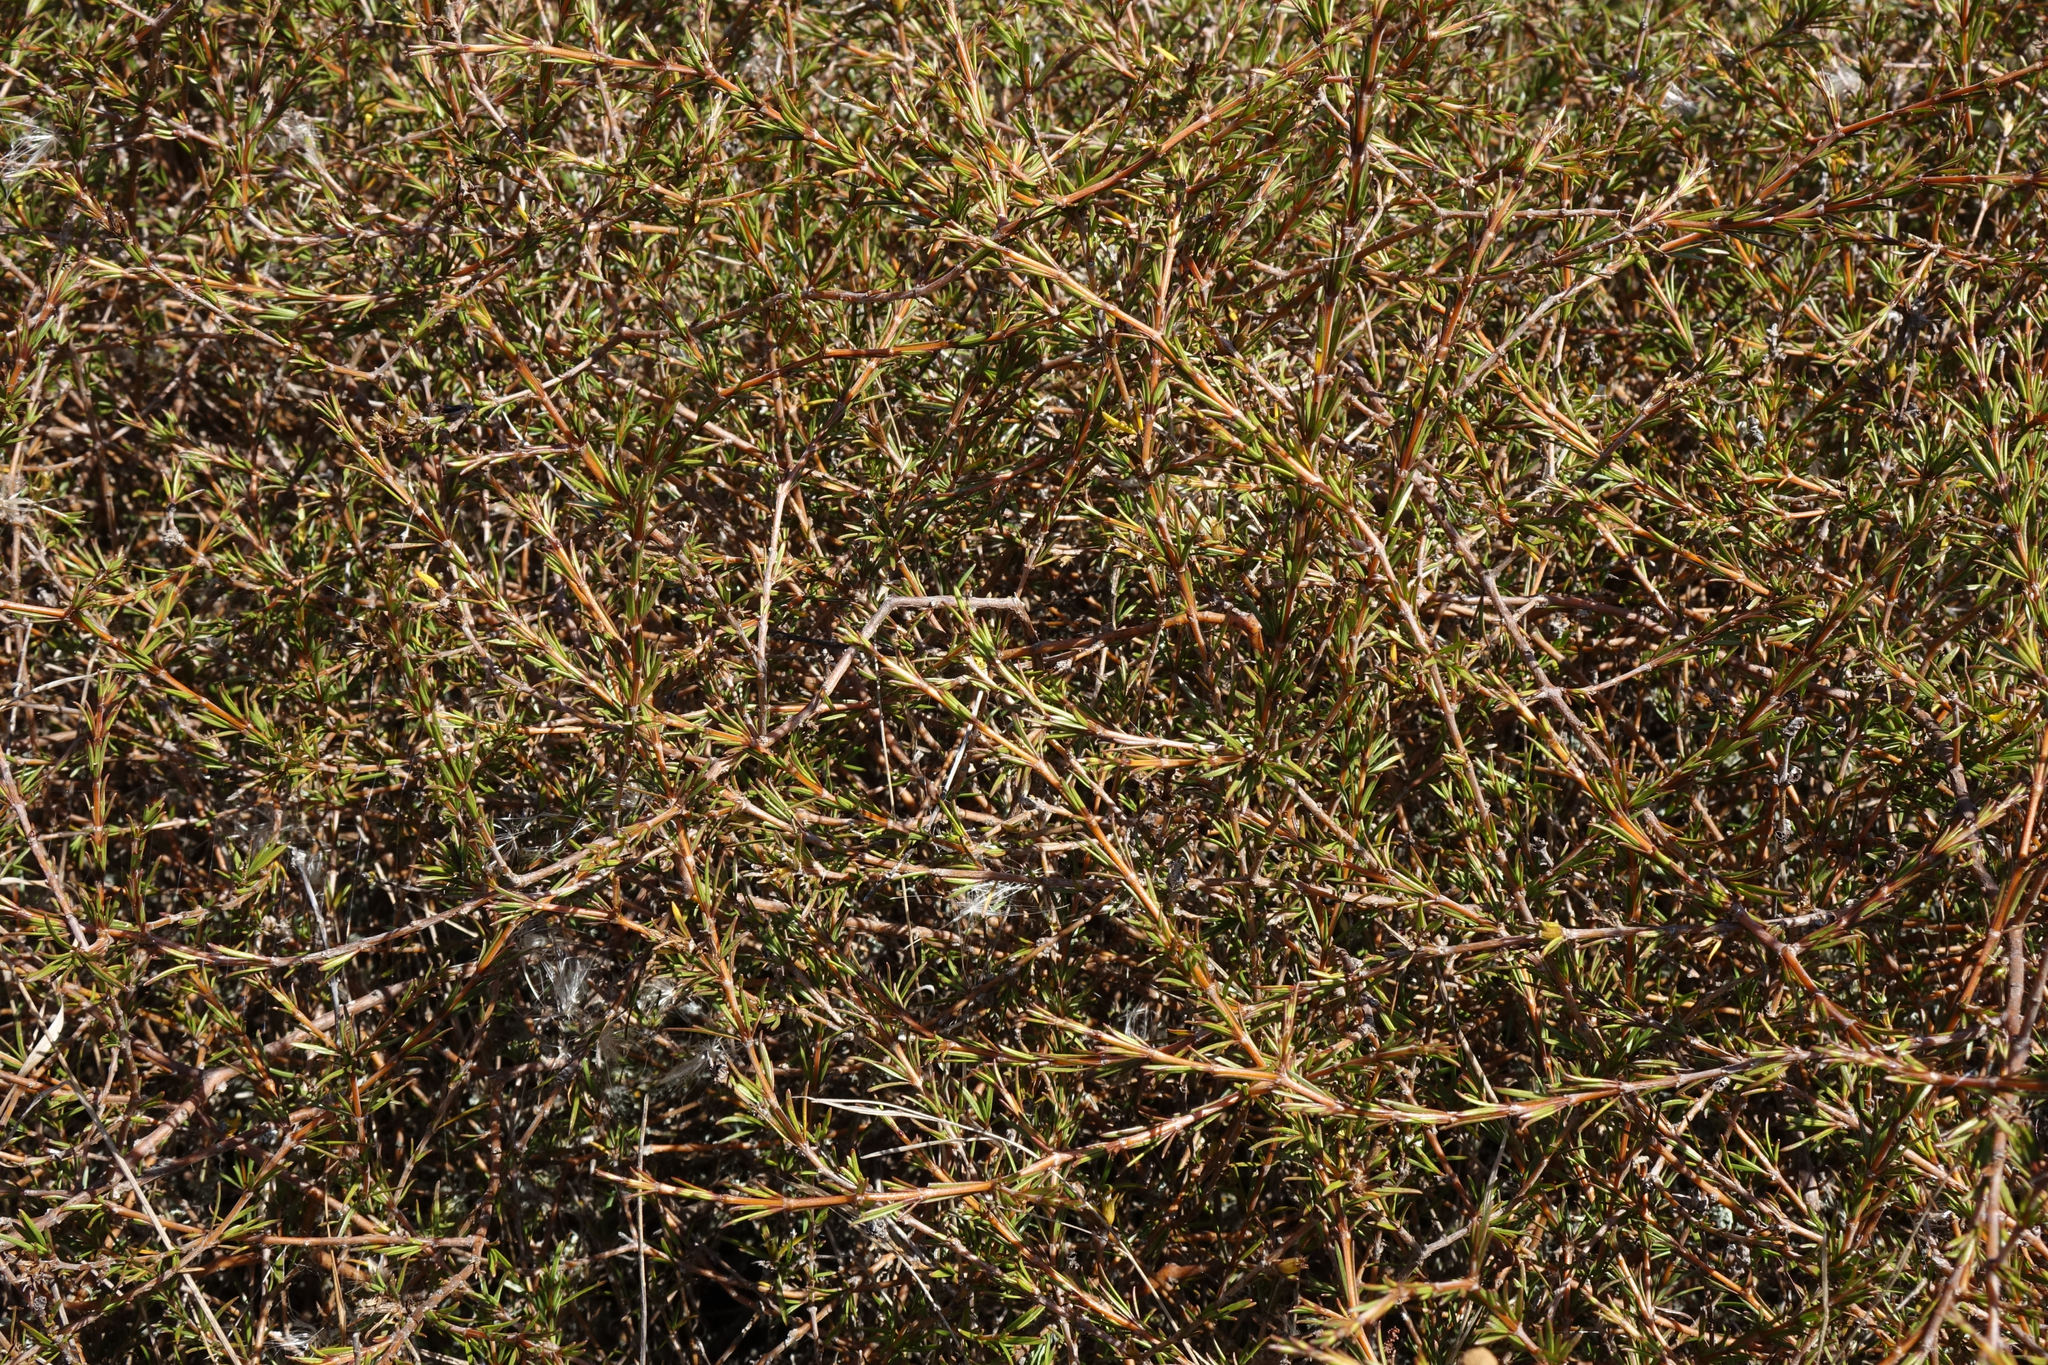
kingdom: Plantae
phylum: Tracheophyta
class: Magnoliopsida
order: Gentianales
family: Rubiaceae
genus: Coprosma
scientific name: Coprosma acerosa
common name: Sand coprosma
